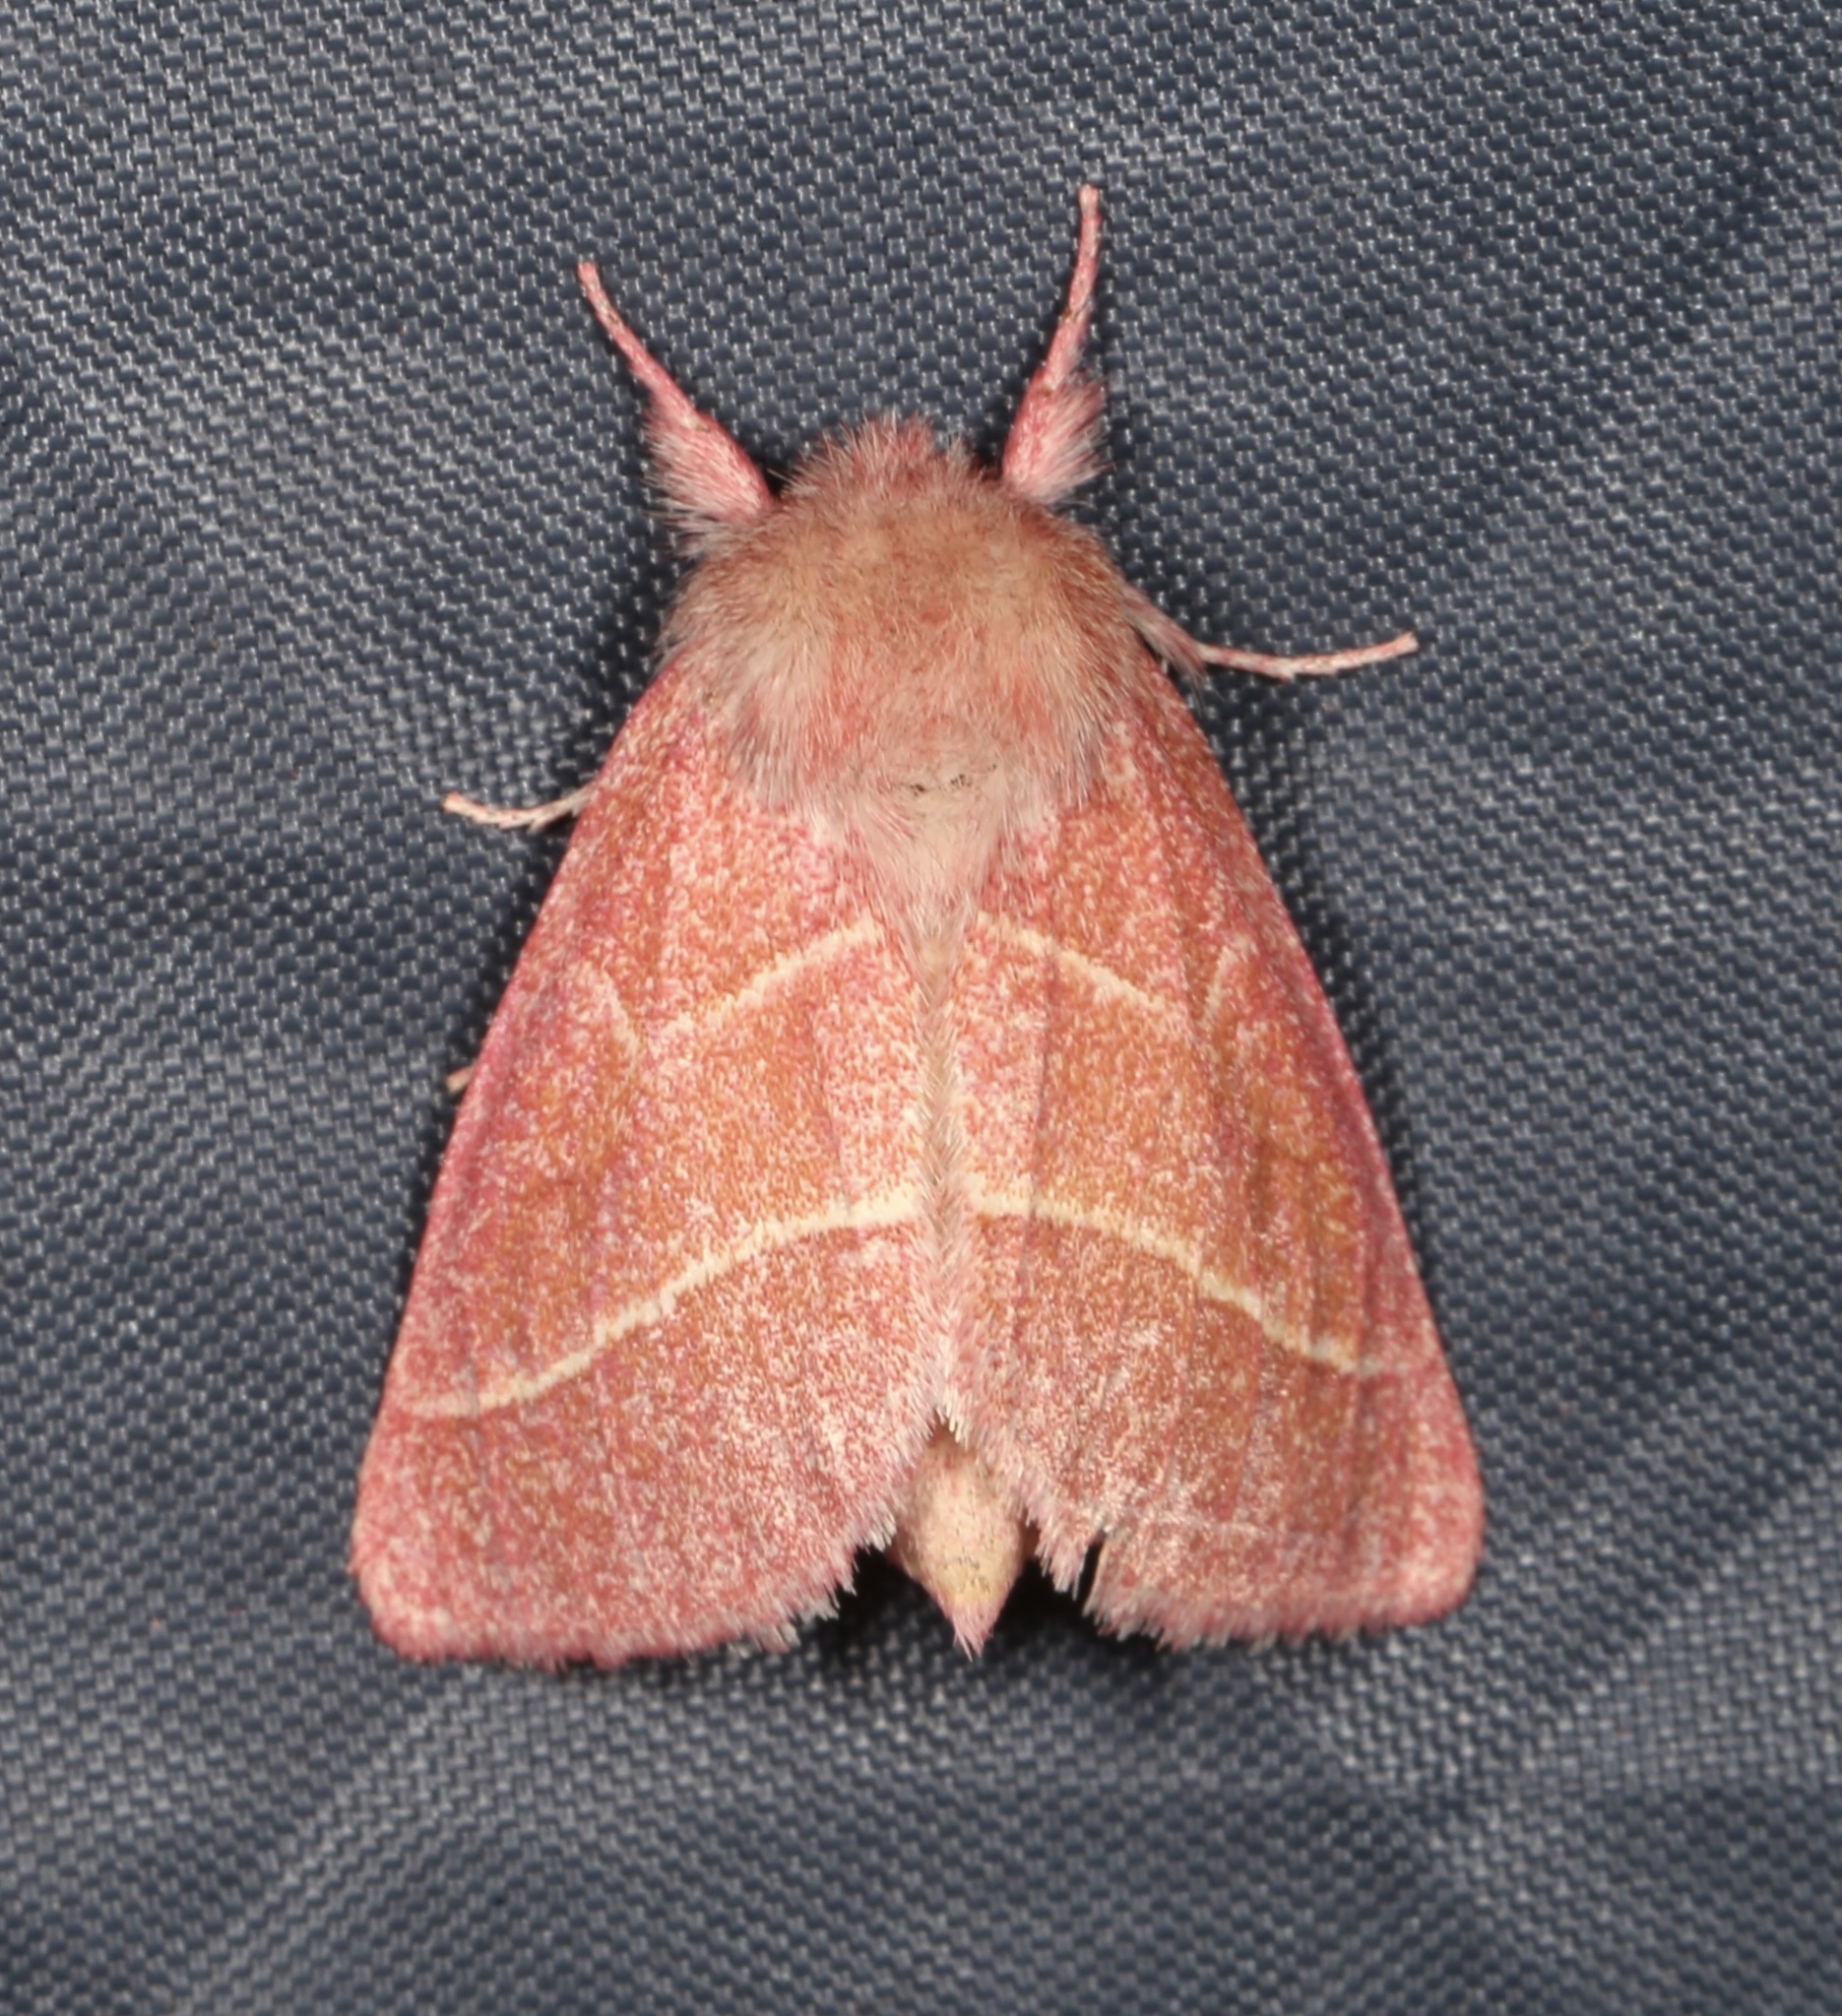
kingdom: Animalia
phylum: Arthropoda
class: Insecta
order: Lepidoptera
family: Notodontidae
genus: Hyparpax
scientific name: Hyparpax aurostriata
